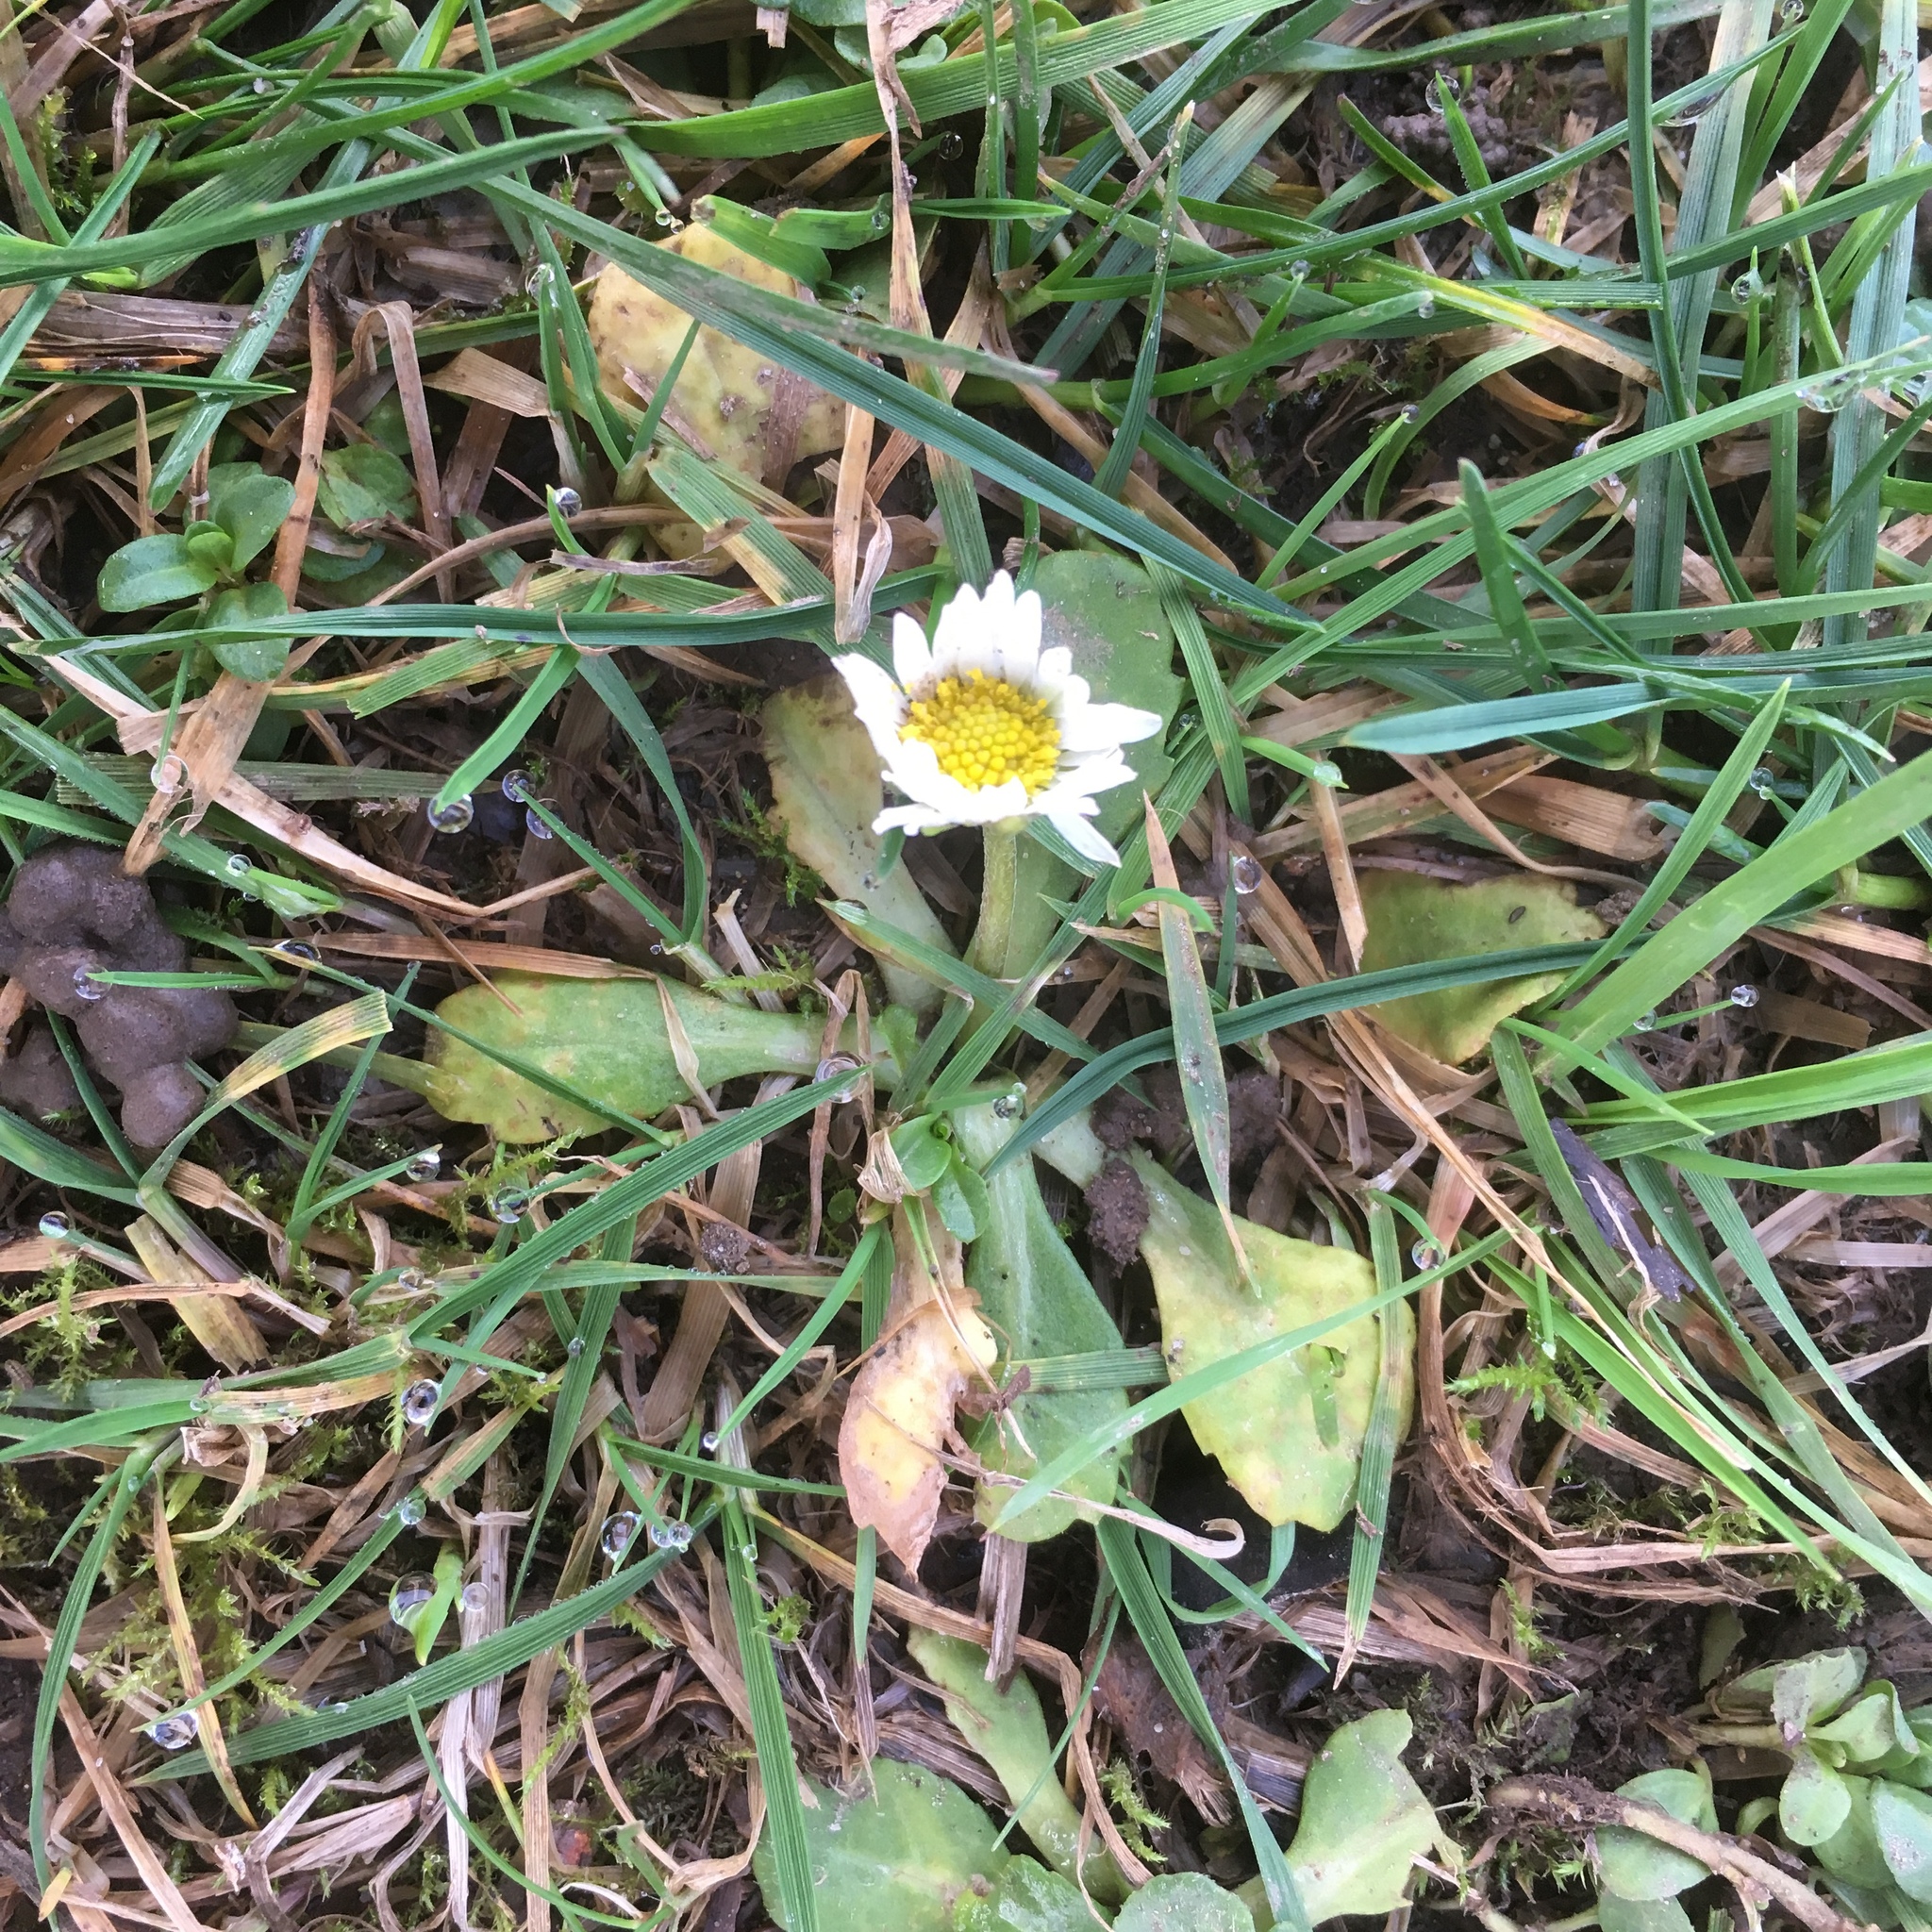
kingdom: Plantae
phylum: Tracheophyta
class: Magnoliopsida
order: Asterales
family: Asteraceae
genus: Bellis
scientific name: Bellis perennis
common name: Lawndaisy
